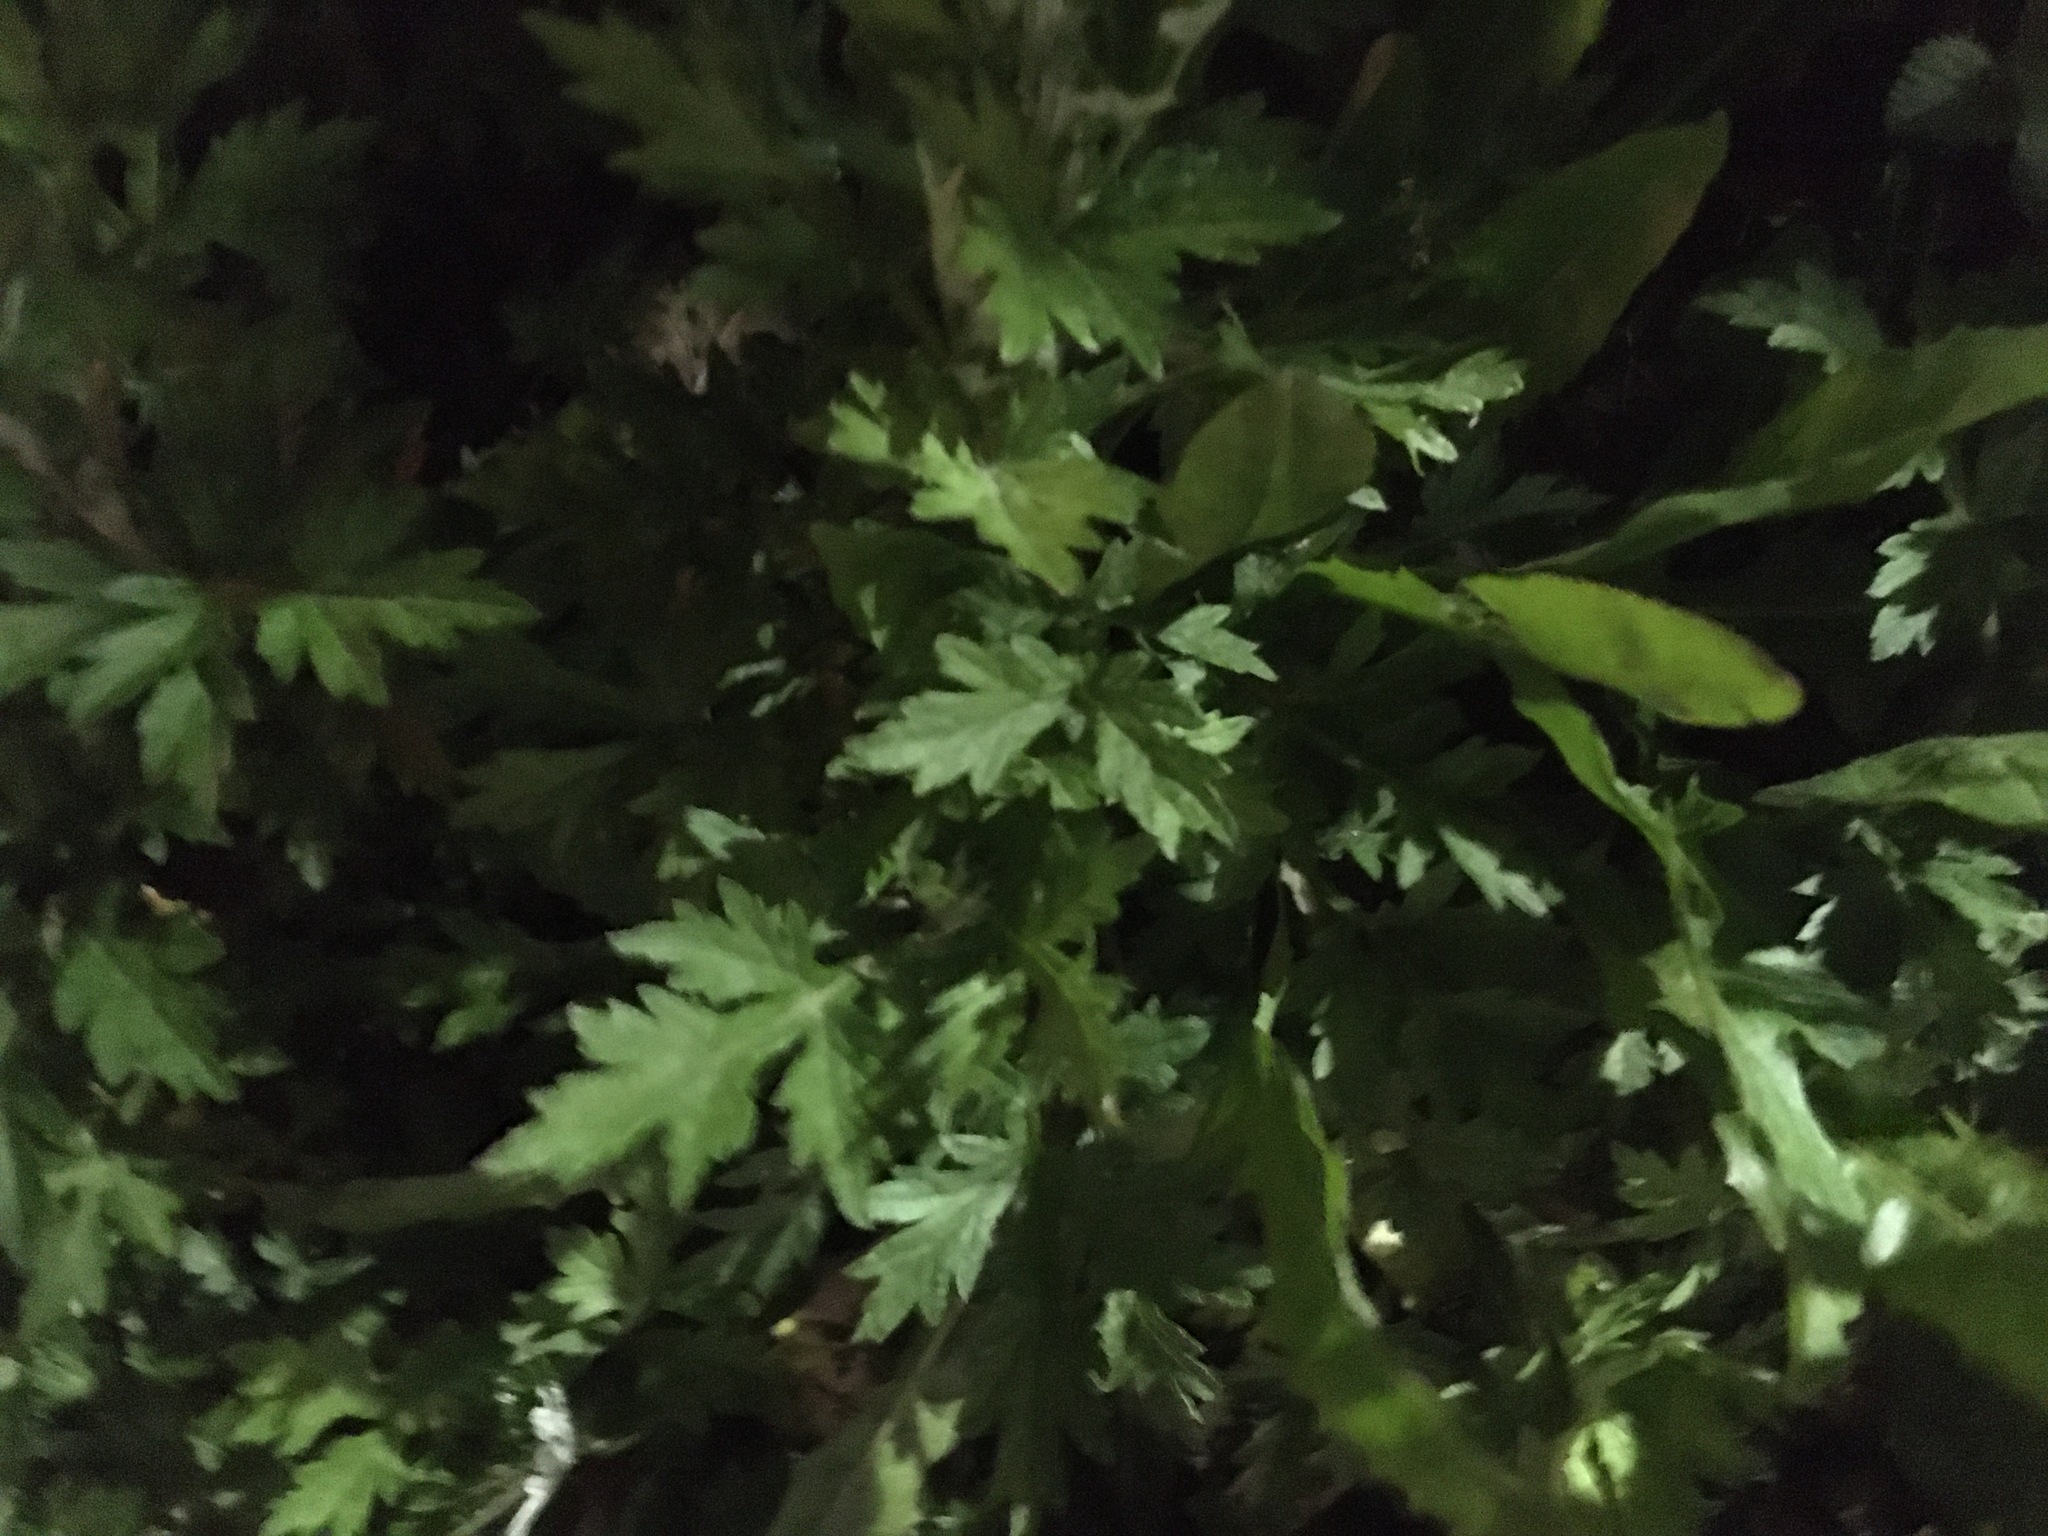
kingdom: Plantae
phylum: Tracheophyta
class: Magnoliopsida
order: Asterales
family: Asteraceae
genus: Artemisia
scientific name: Artemisia vulgaris
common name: Mugwort
